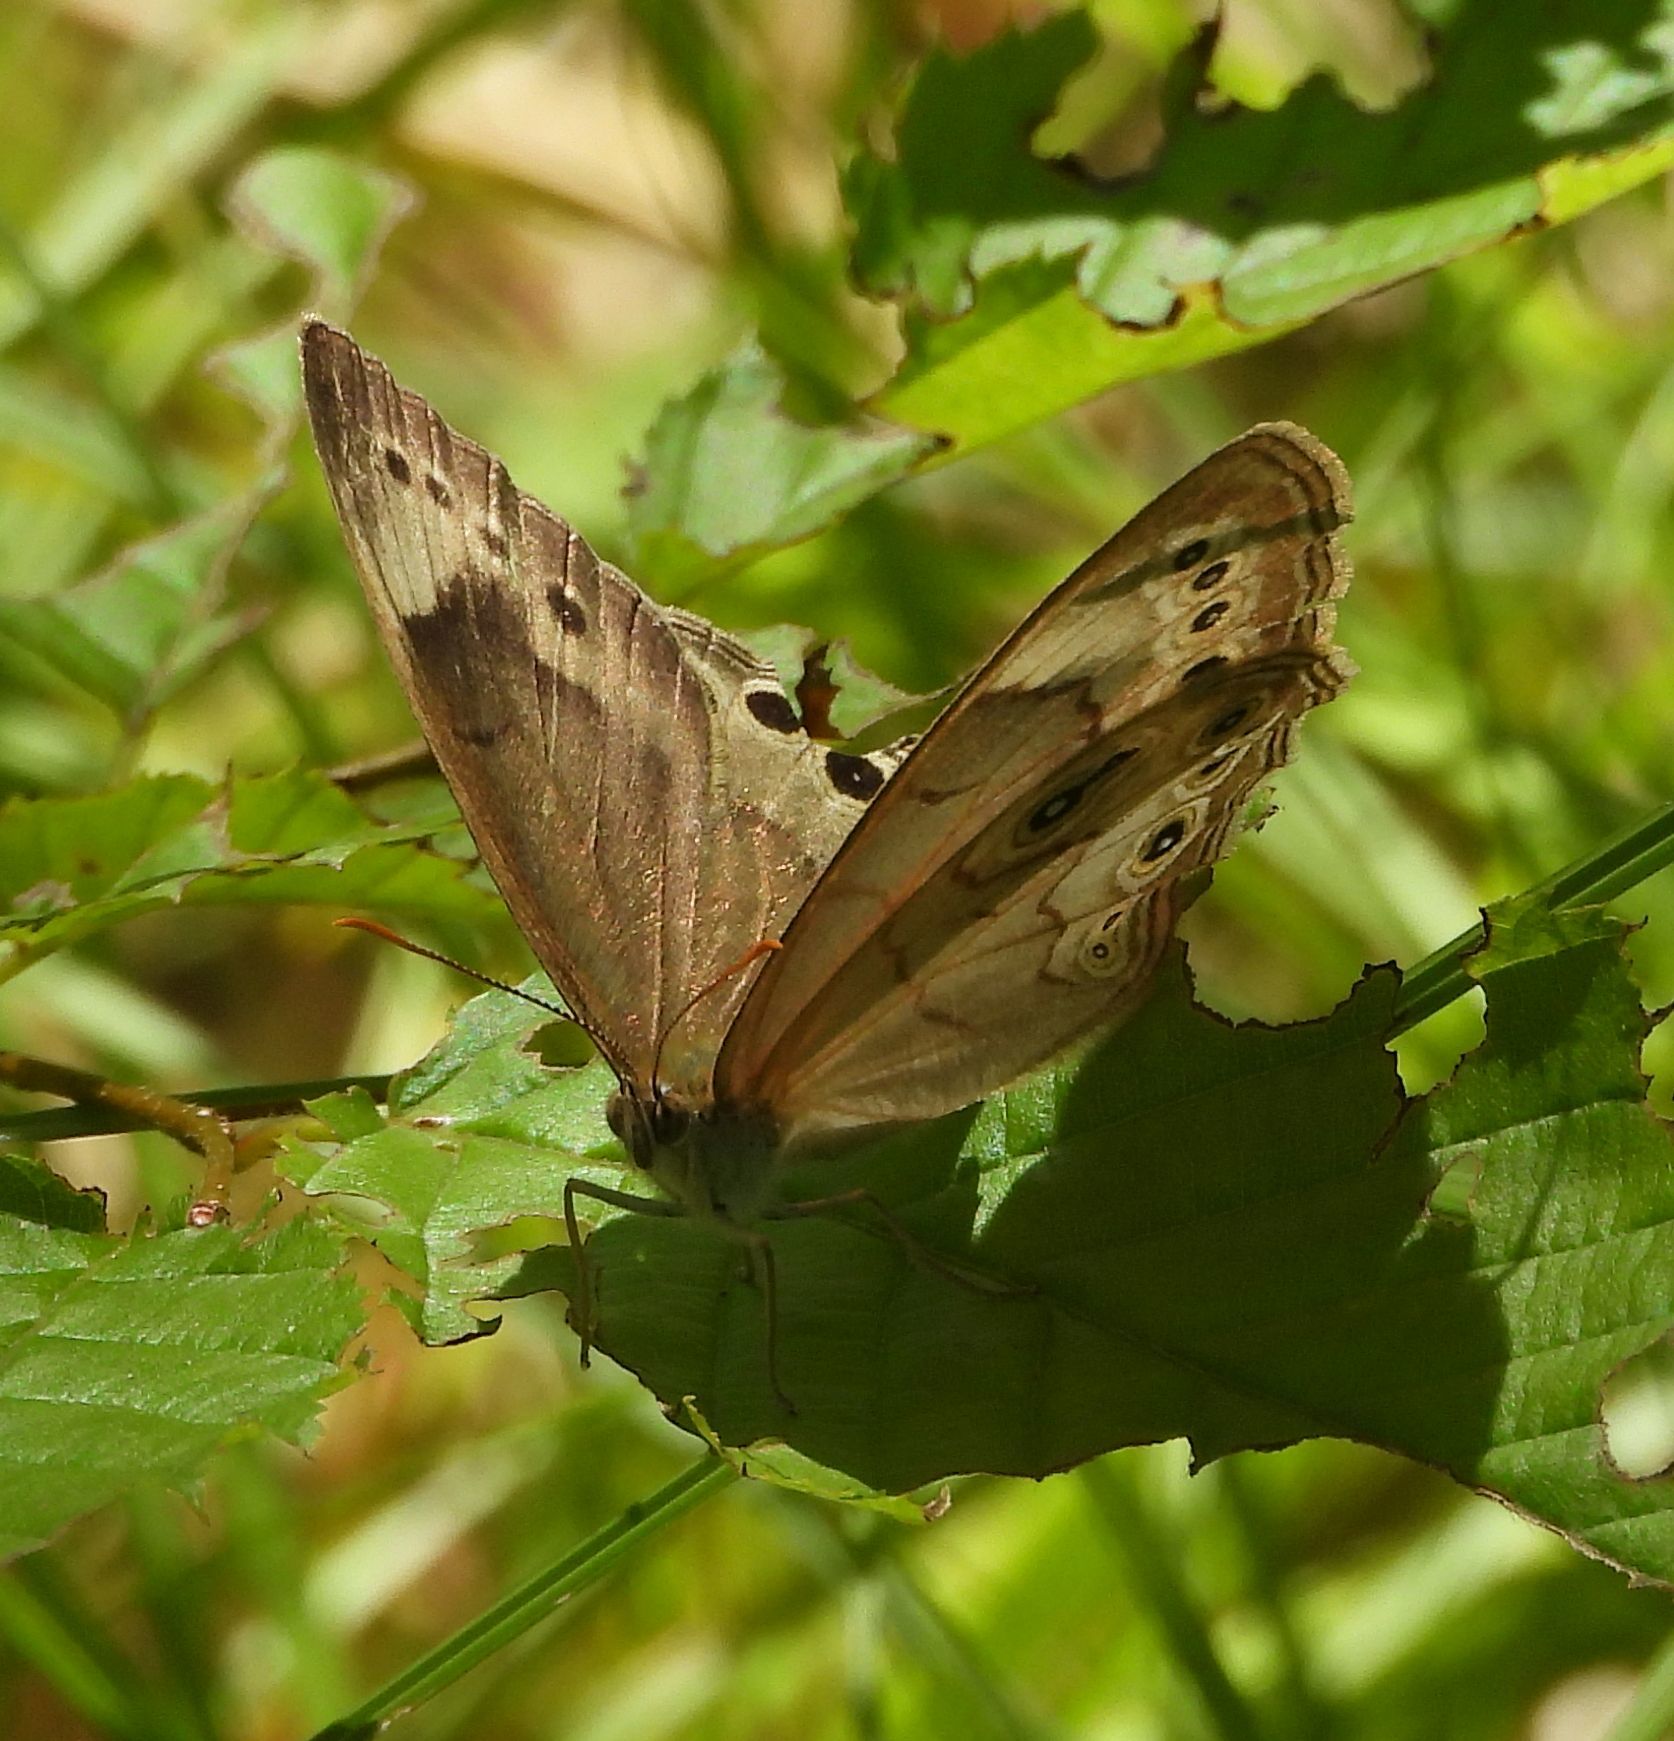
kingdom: Animalia
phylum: Arthropoda
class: Insecta
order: Lepidoptera
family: Nymphalidae
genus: Lethe
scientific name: Lethe eurydice
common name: Eyed brown
